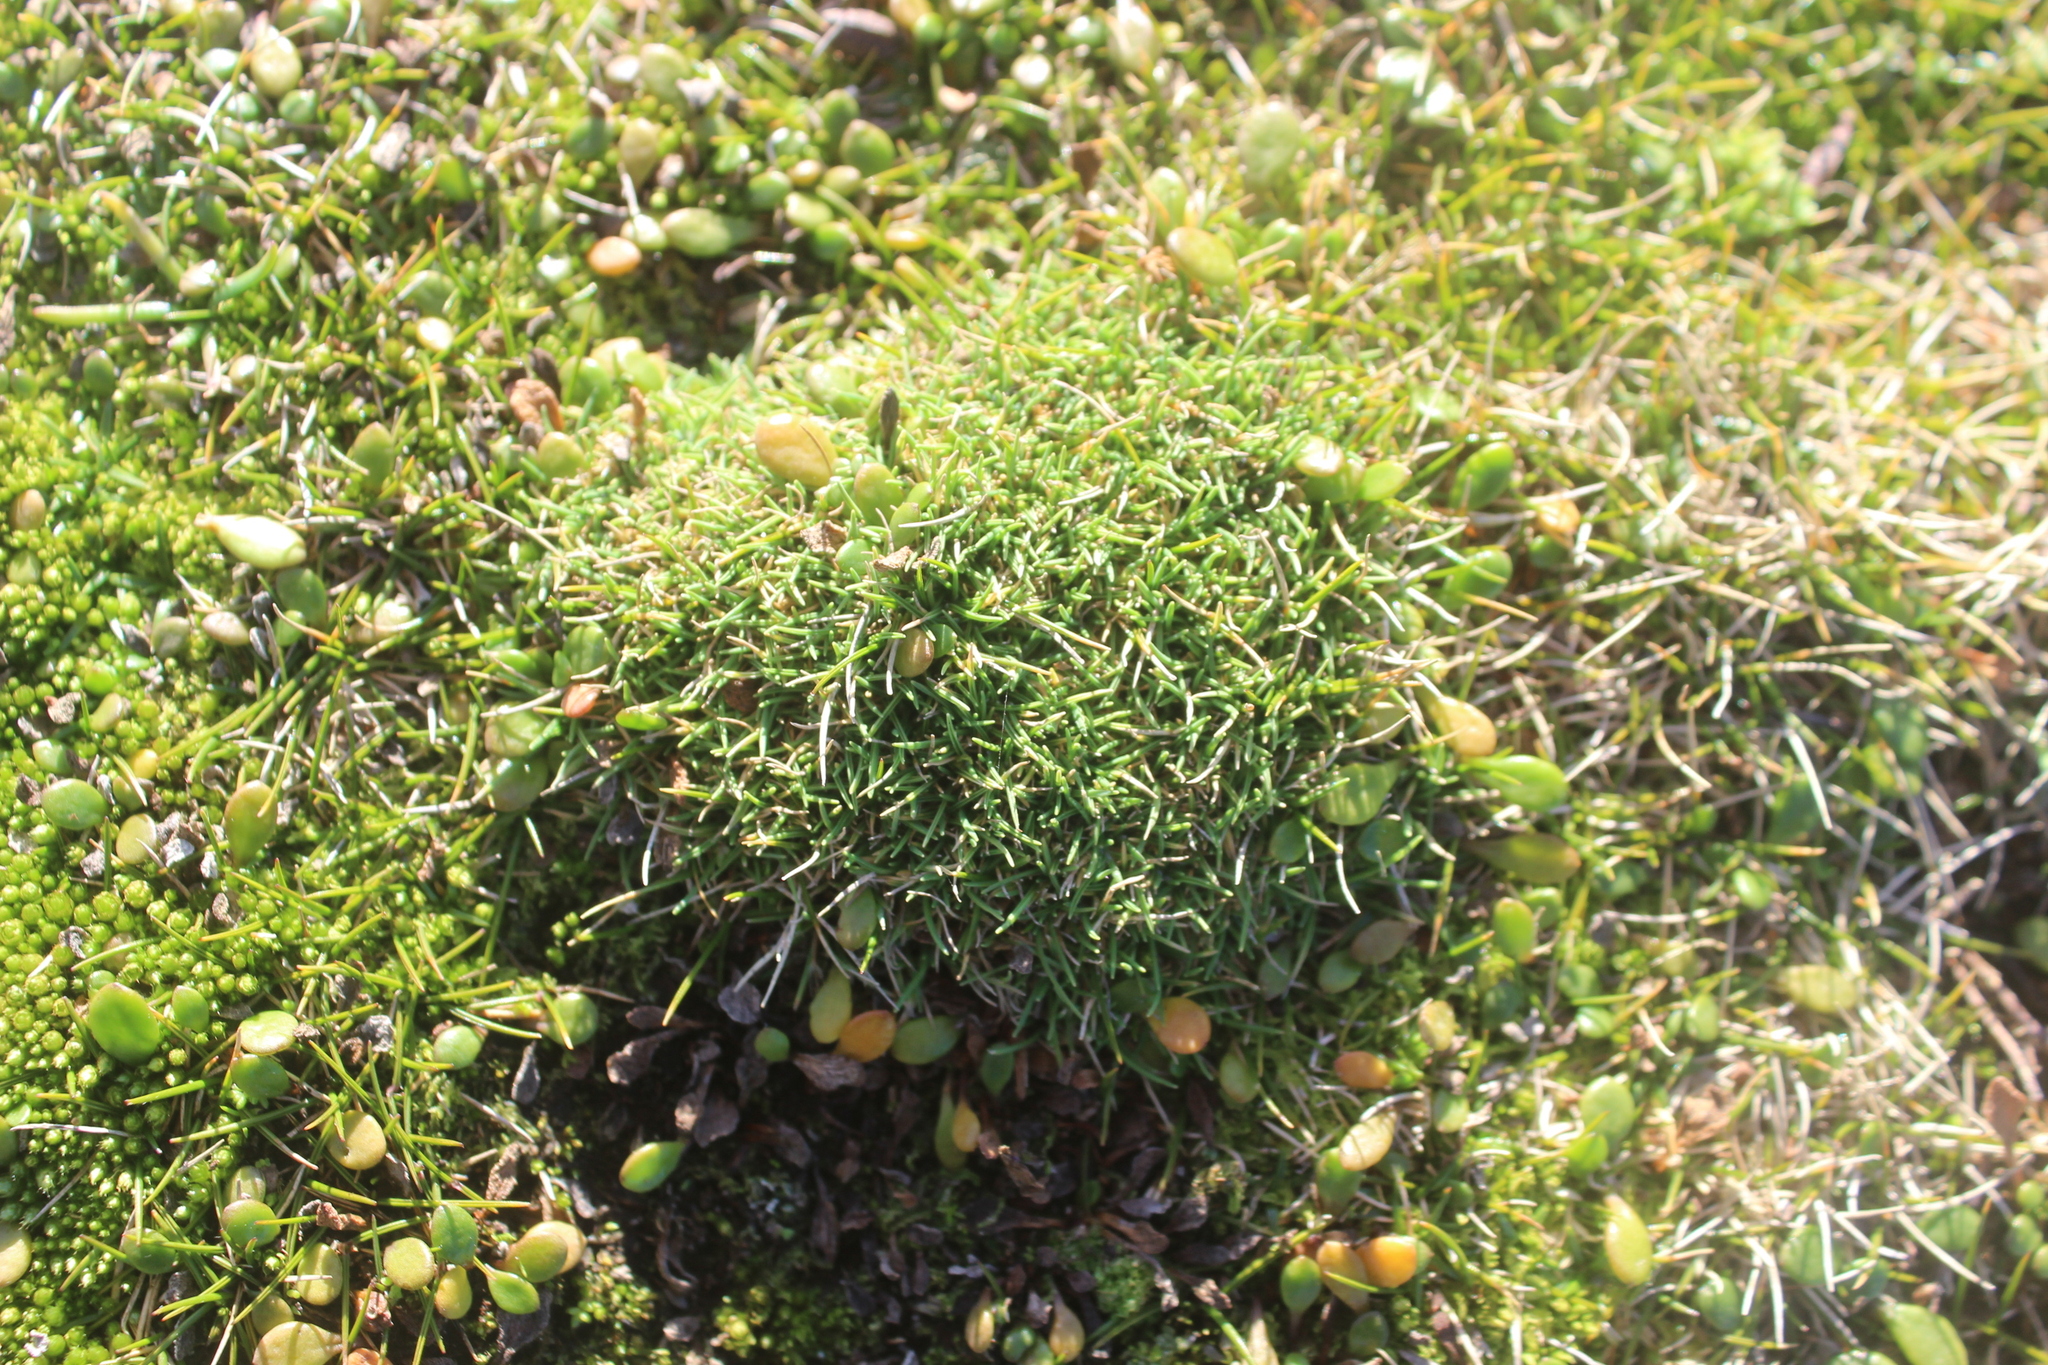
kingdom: Plantae
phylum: Tracheophyta
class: Liliopsida
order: Poales
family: Poaceae
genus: Agrostis
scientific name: Agrostis muscosa
